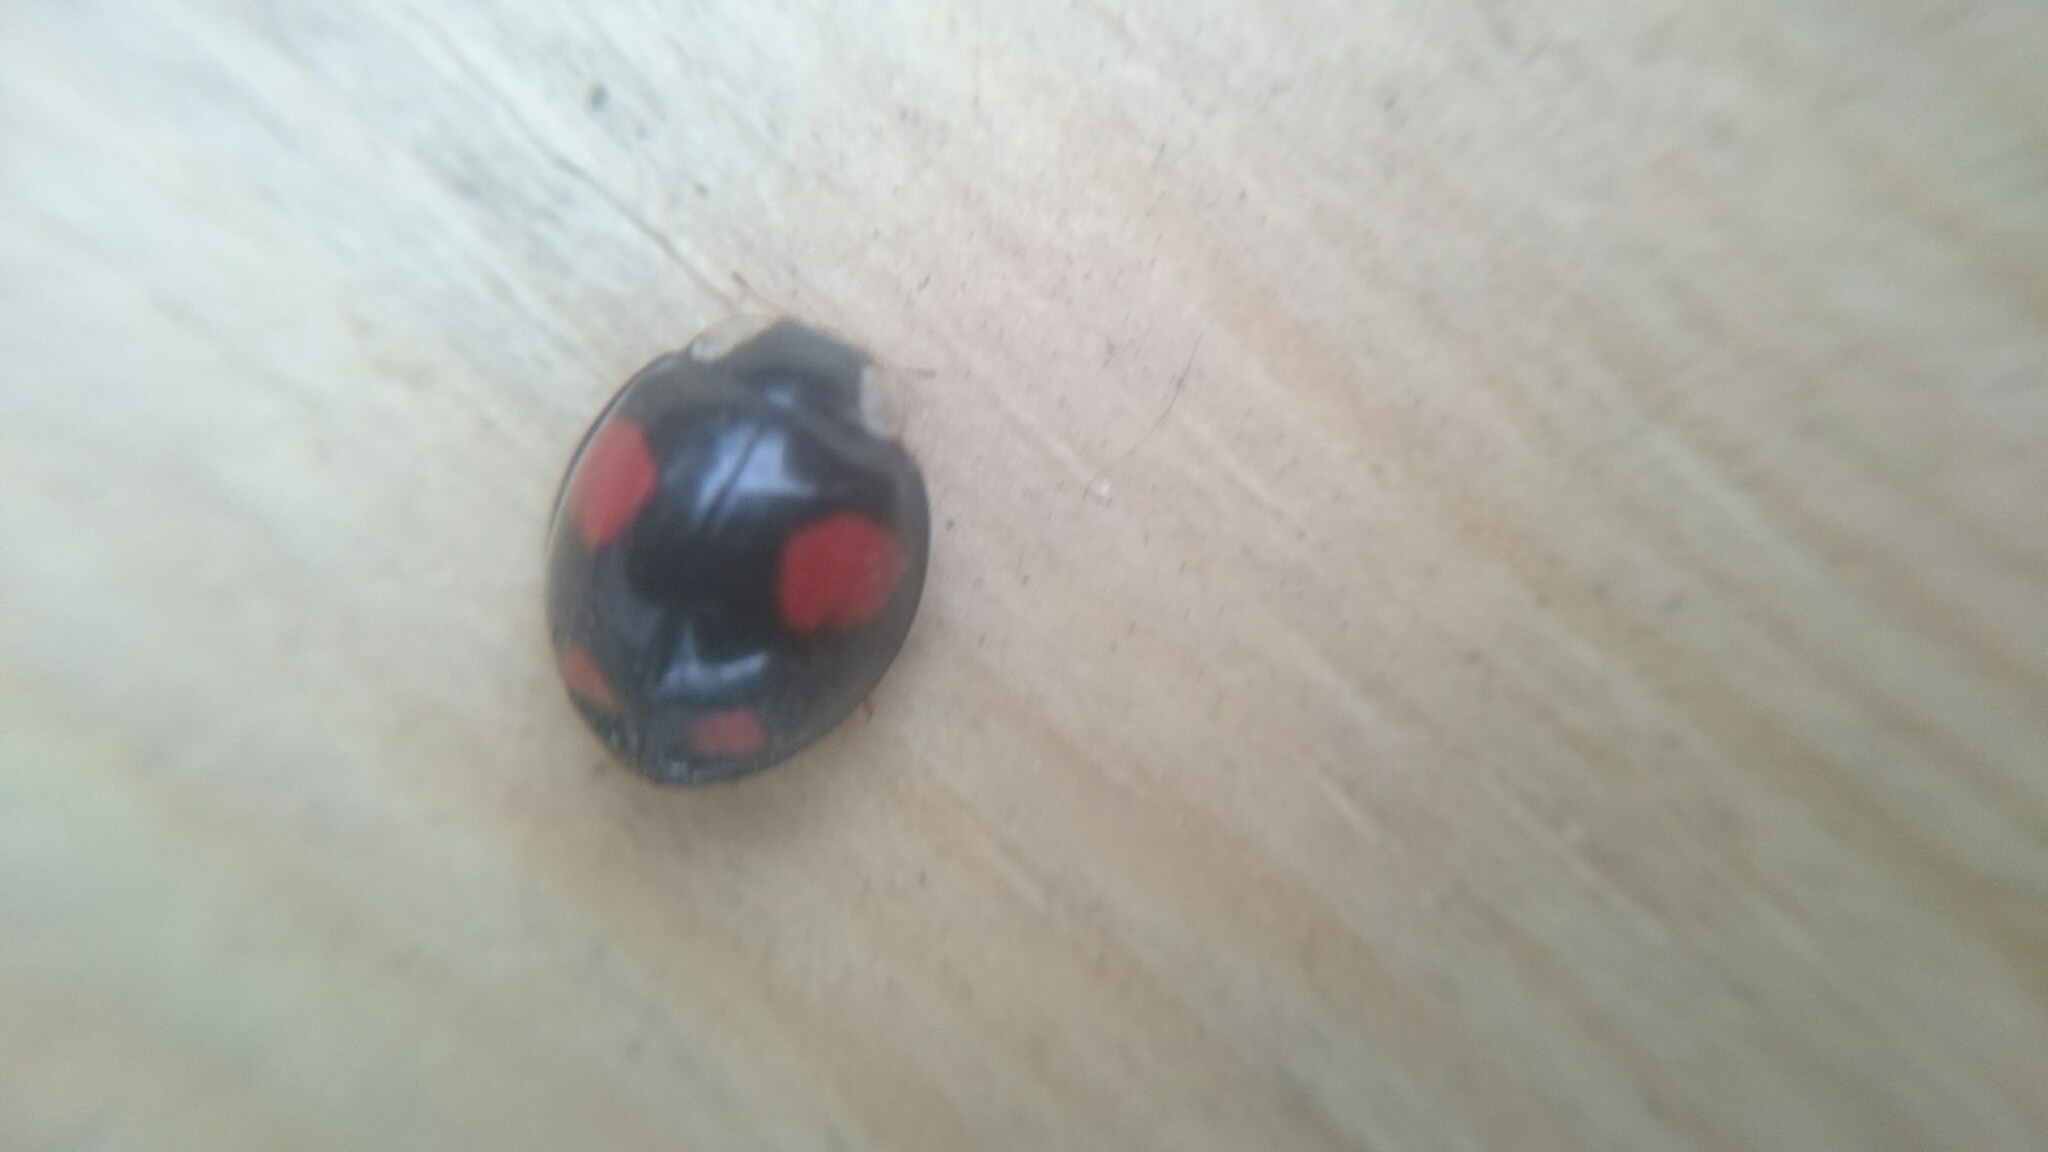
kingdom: Animalia
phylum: Arthropoda
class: Insecta
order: Coleoptera
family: Coccinellidae
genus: Harmonia
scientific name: Harmonia axyridis
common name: Harlequin ladybird
